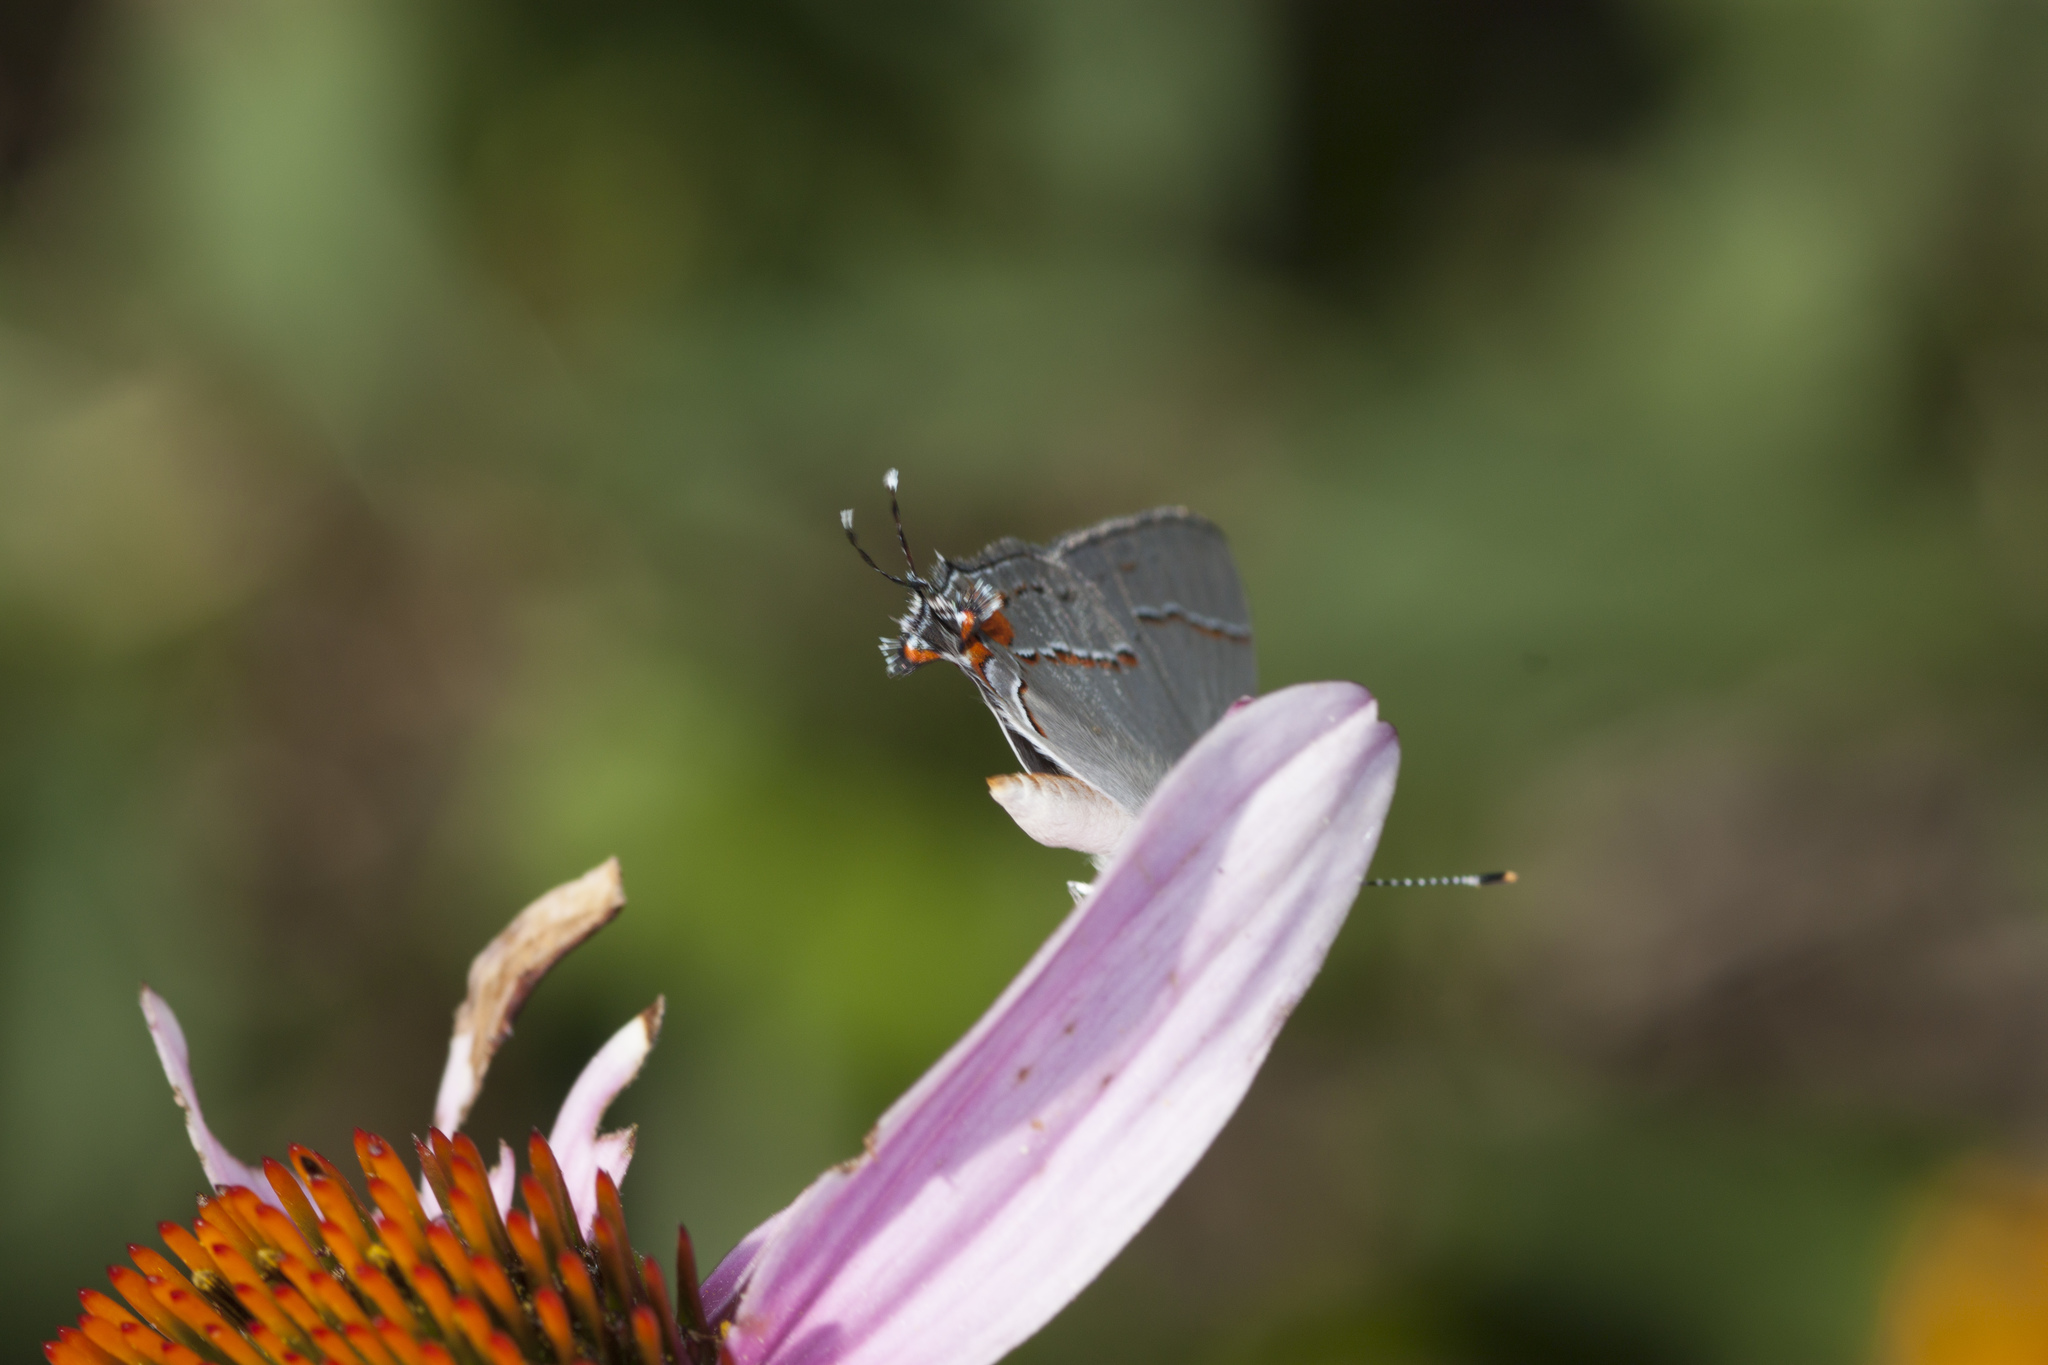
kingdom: Animalia
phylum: Arthropoda
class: Insecta
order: Lepidoptera
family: Lycaenidae
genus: Strymon
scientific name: Strymon melinus
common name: Gray hairstreak
